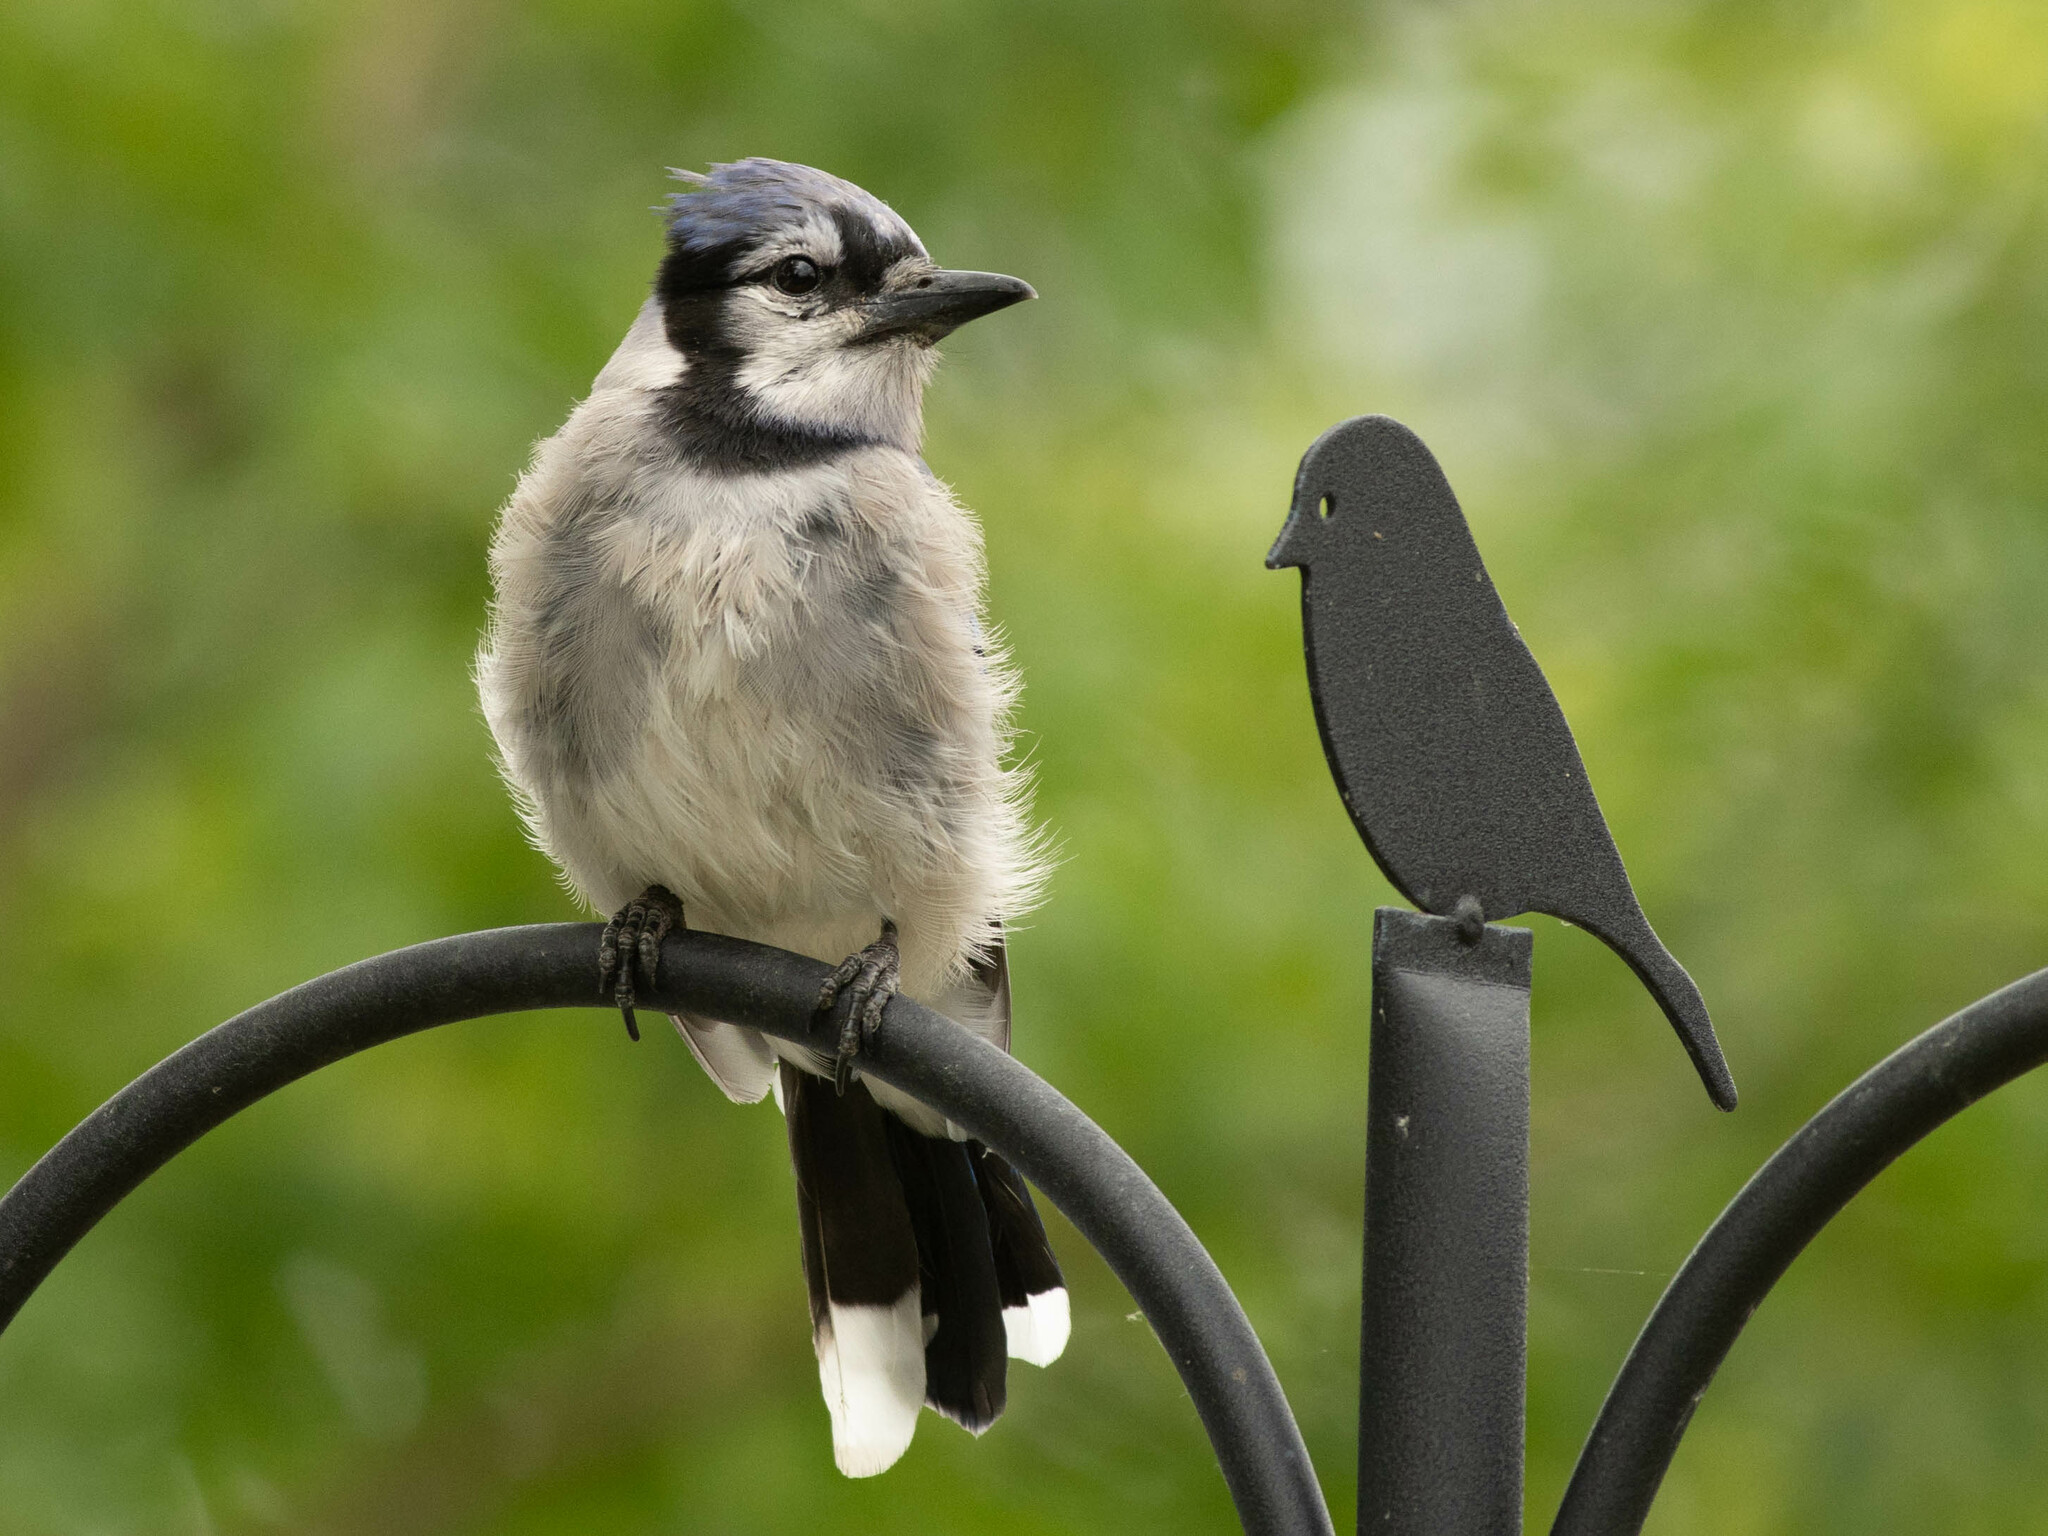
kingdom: Animalia
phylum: Chordata
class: Aves
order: Passeriformes
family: Corvidae
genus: Cyanocitta
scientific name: Cyanocitta cristata
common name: Blue jay
